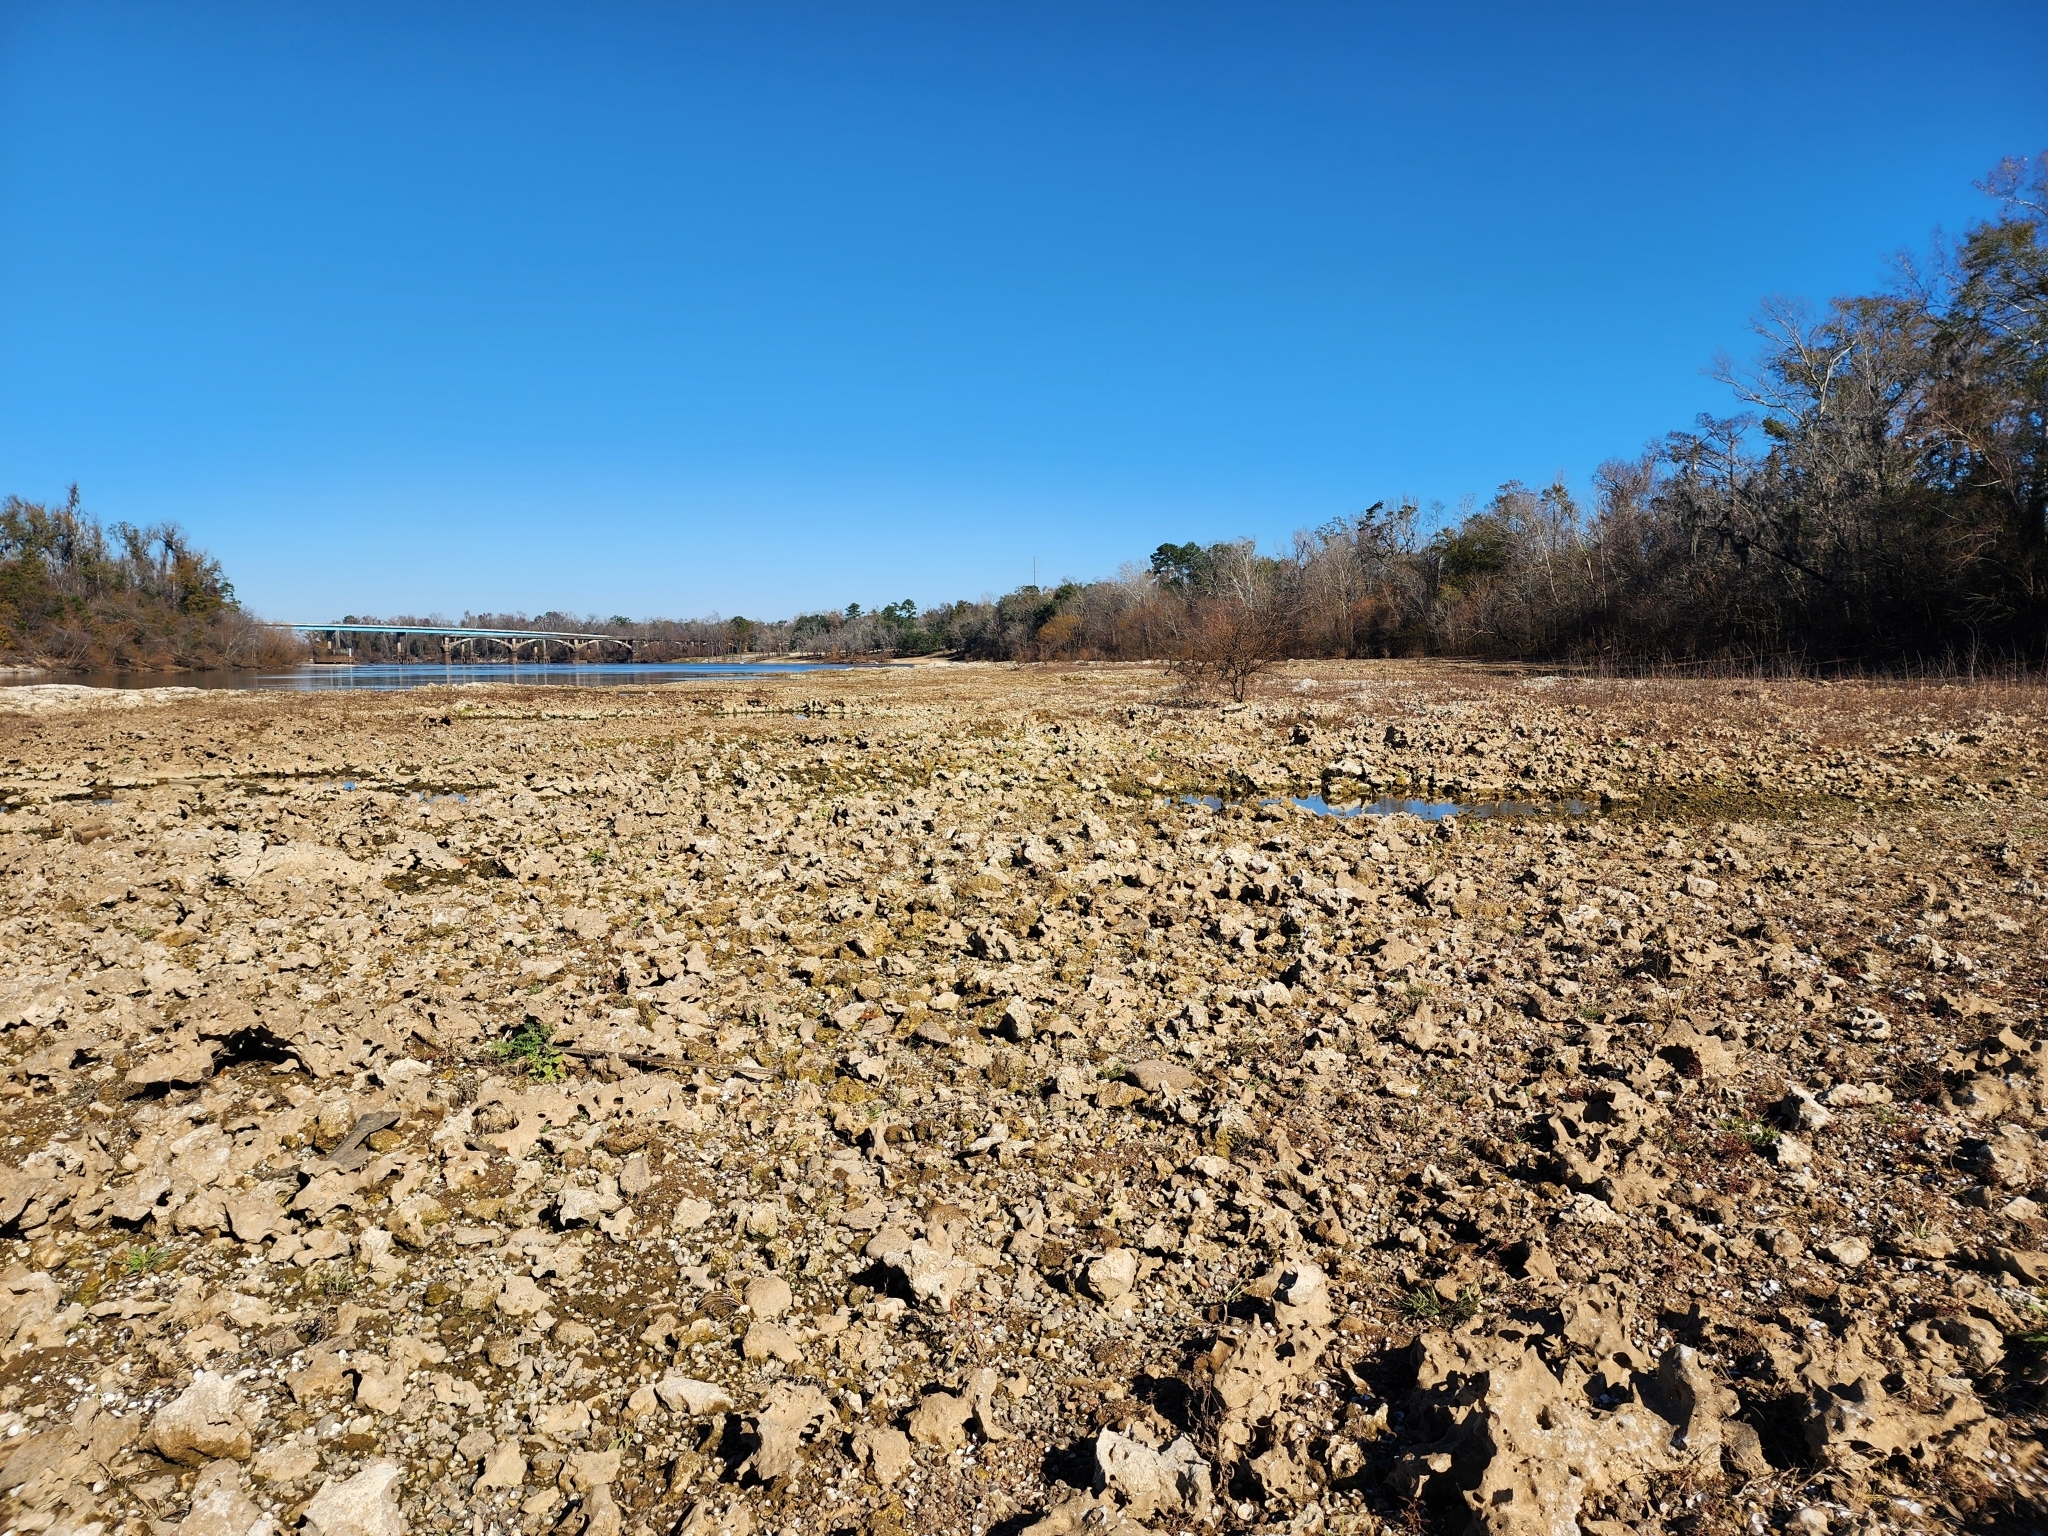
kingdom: Plantae
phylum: Tracheophyta
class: Magnoliopsida
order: Malpighiales
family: Phyllanthaceae
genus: Phyllanthus
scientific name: Phyllanthus urinaria
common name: Chamber bitter
